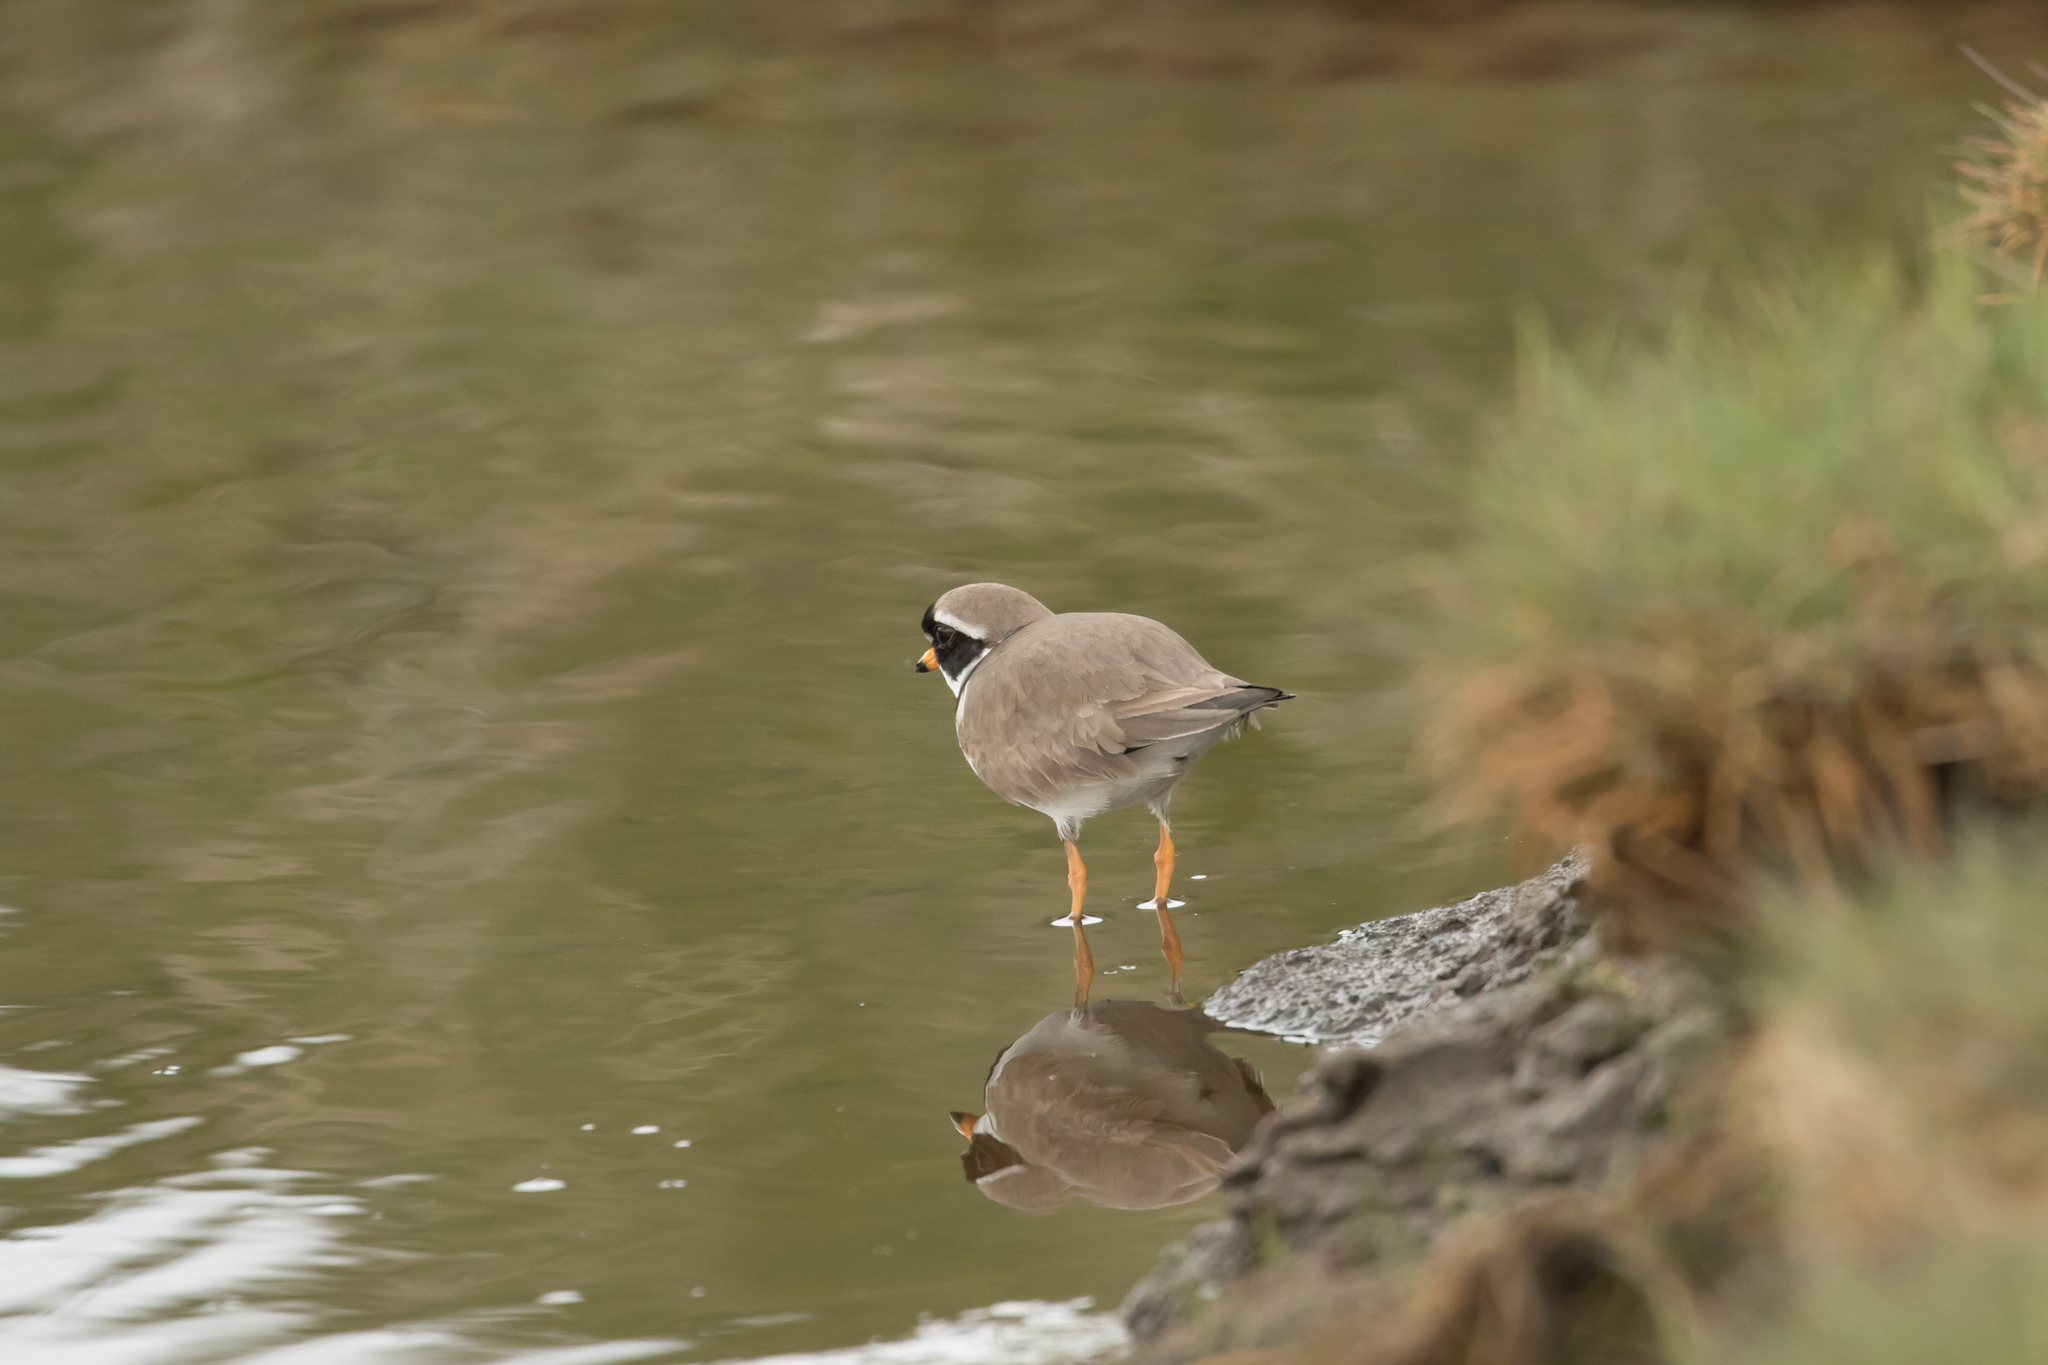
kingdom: Animalia
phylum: Chordata
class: Aves
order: Charadriiformes
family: Charadriidae
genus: Charadrius
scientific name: Charadrius hiaticula
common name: Common ringed plover
